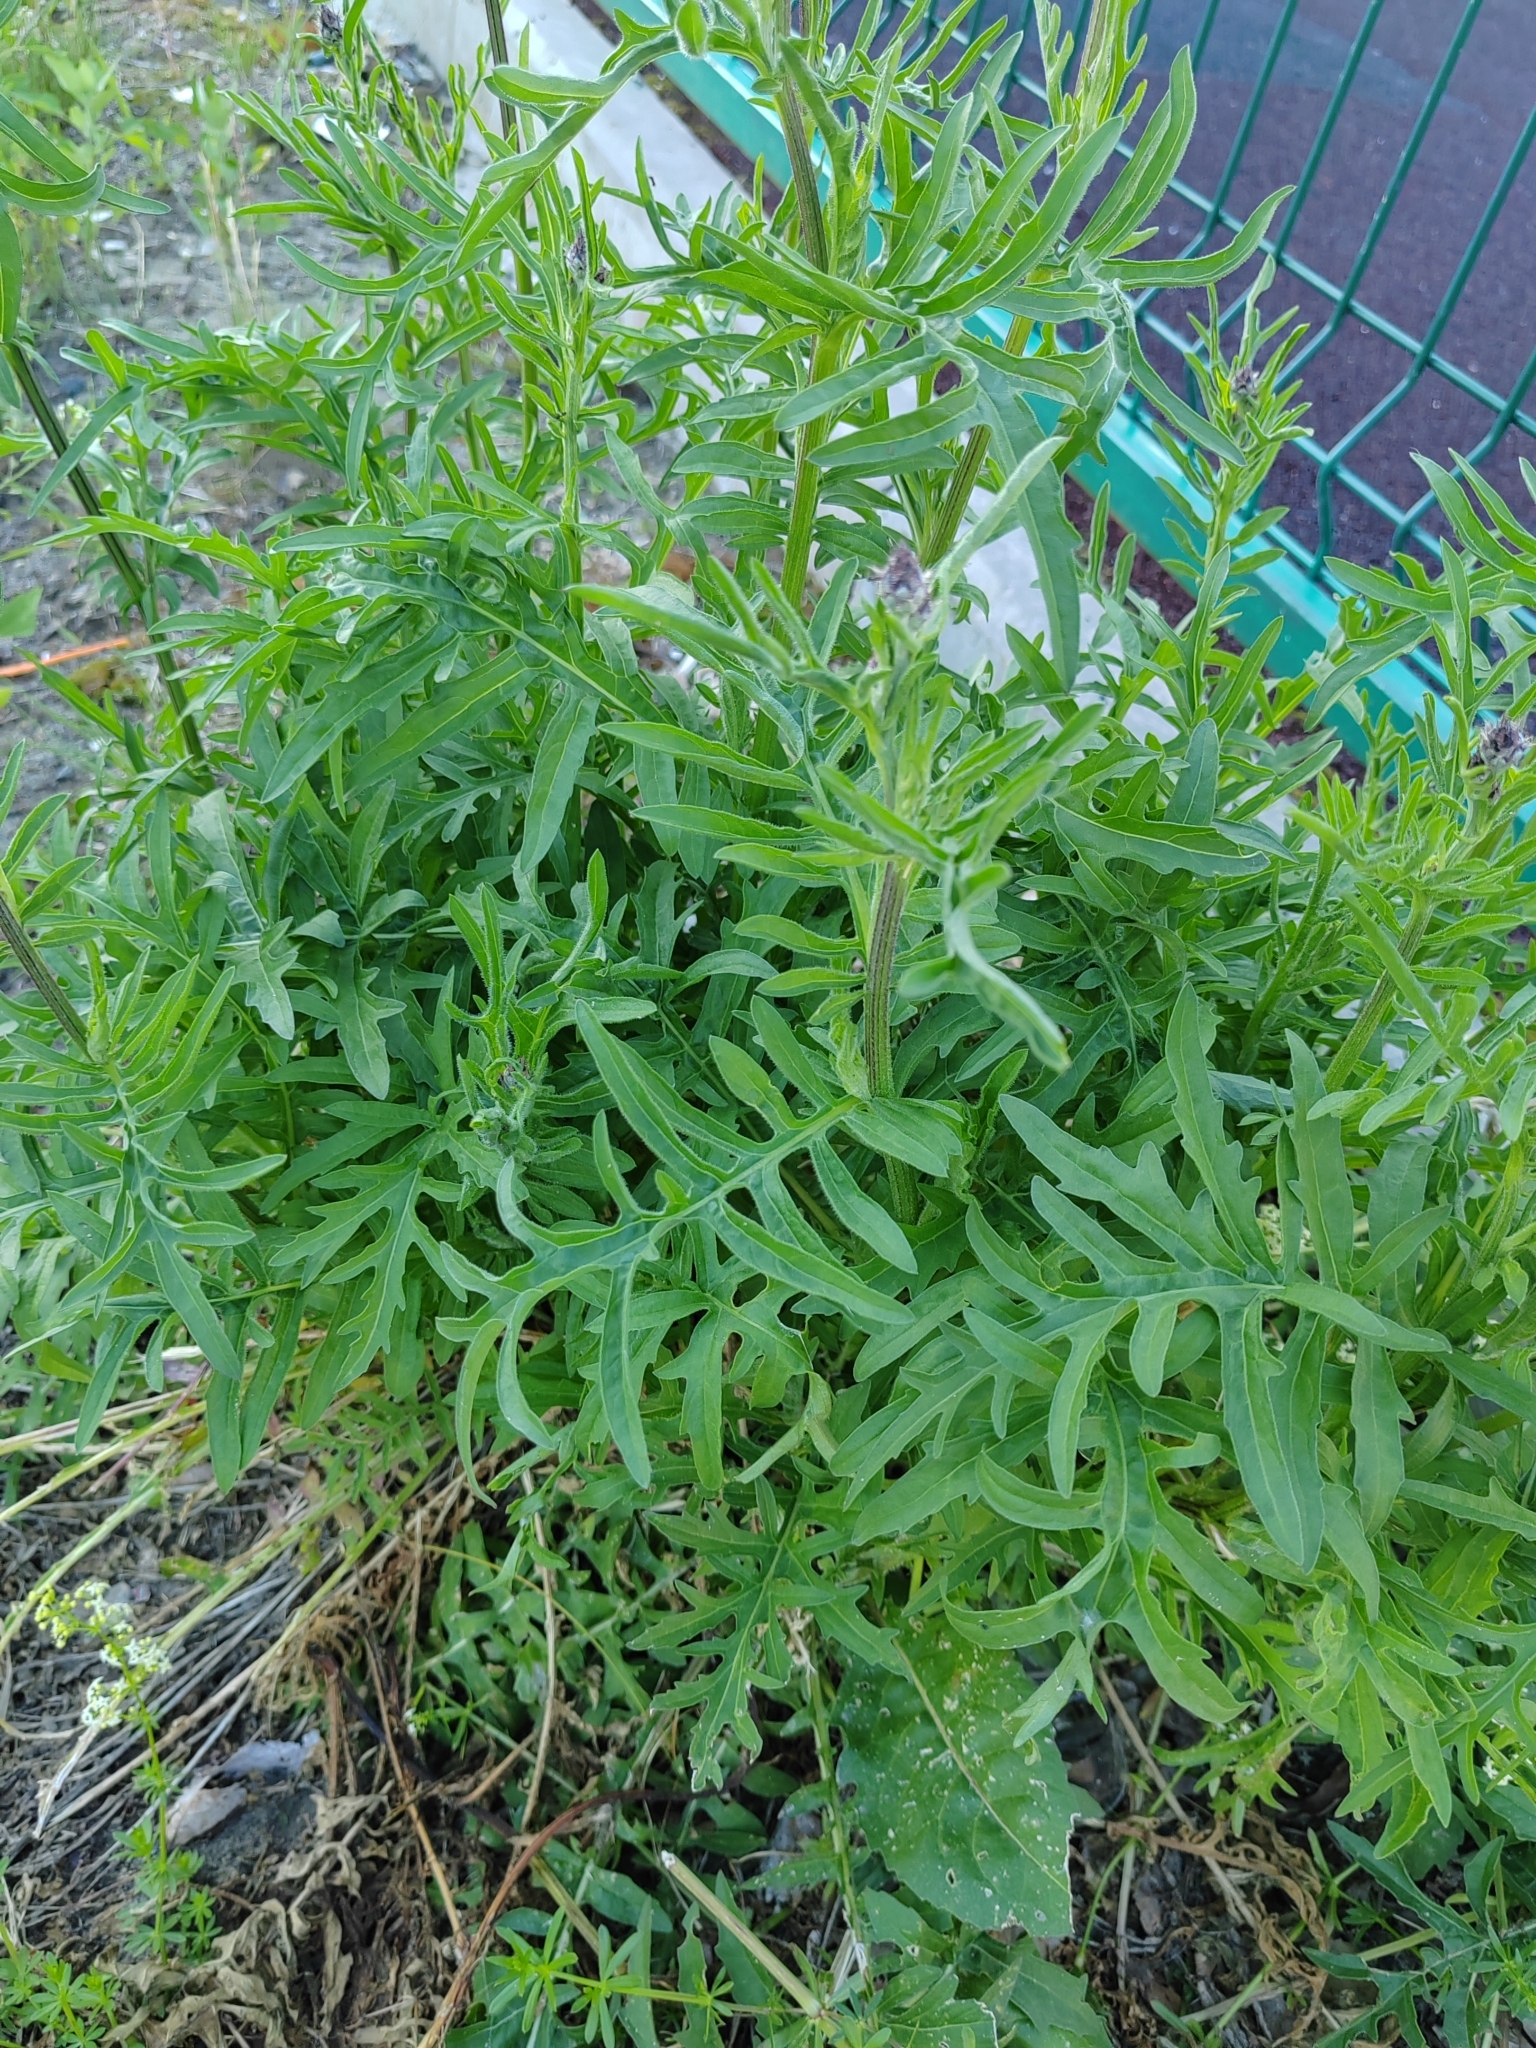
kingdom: Plantae
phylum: Tracheophyta
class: Magnoliopsida
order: Asterales
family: Asteraceae
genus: Centaurea
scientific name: Centaurea scabiosa
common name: Greater knapweed
